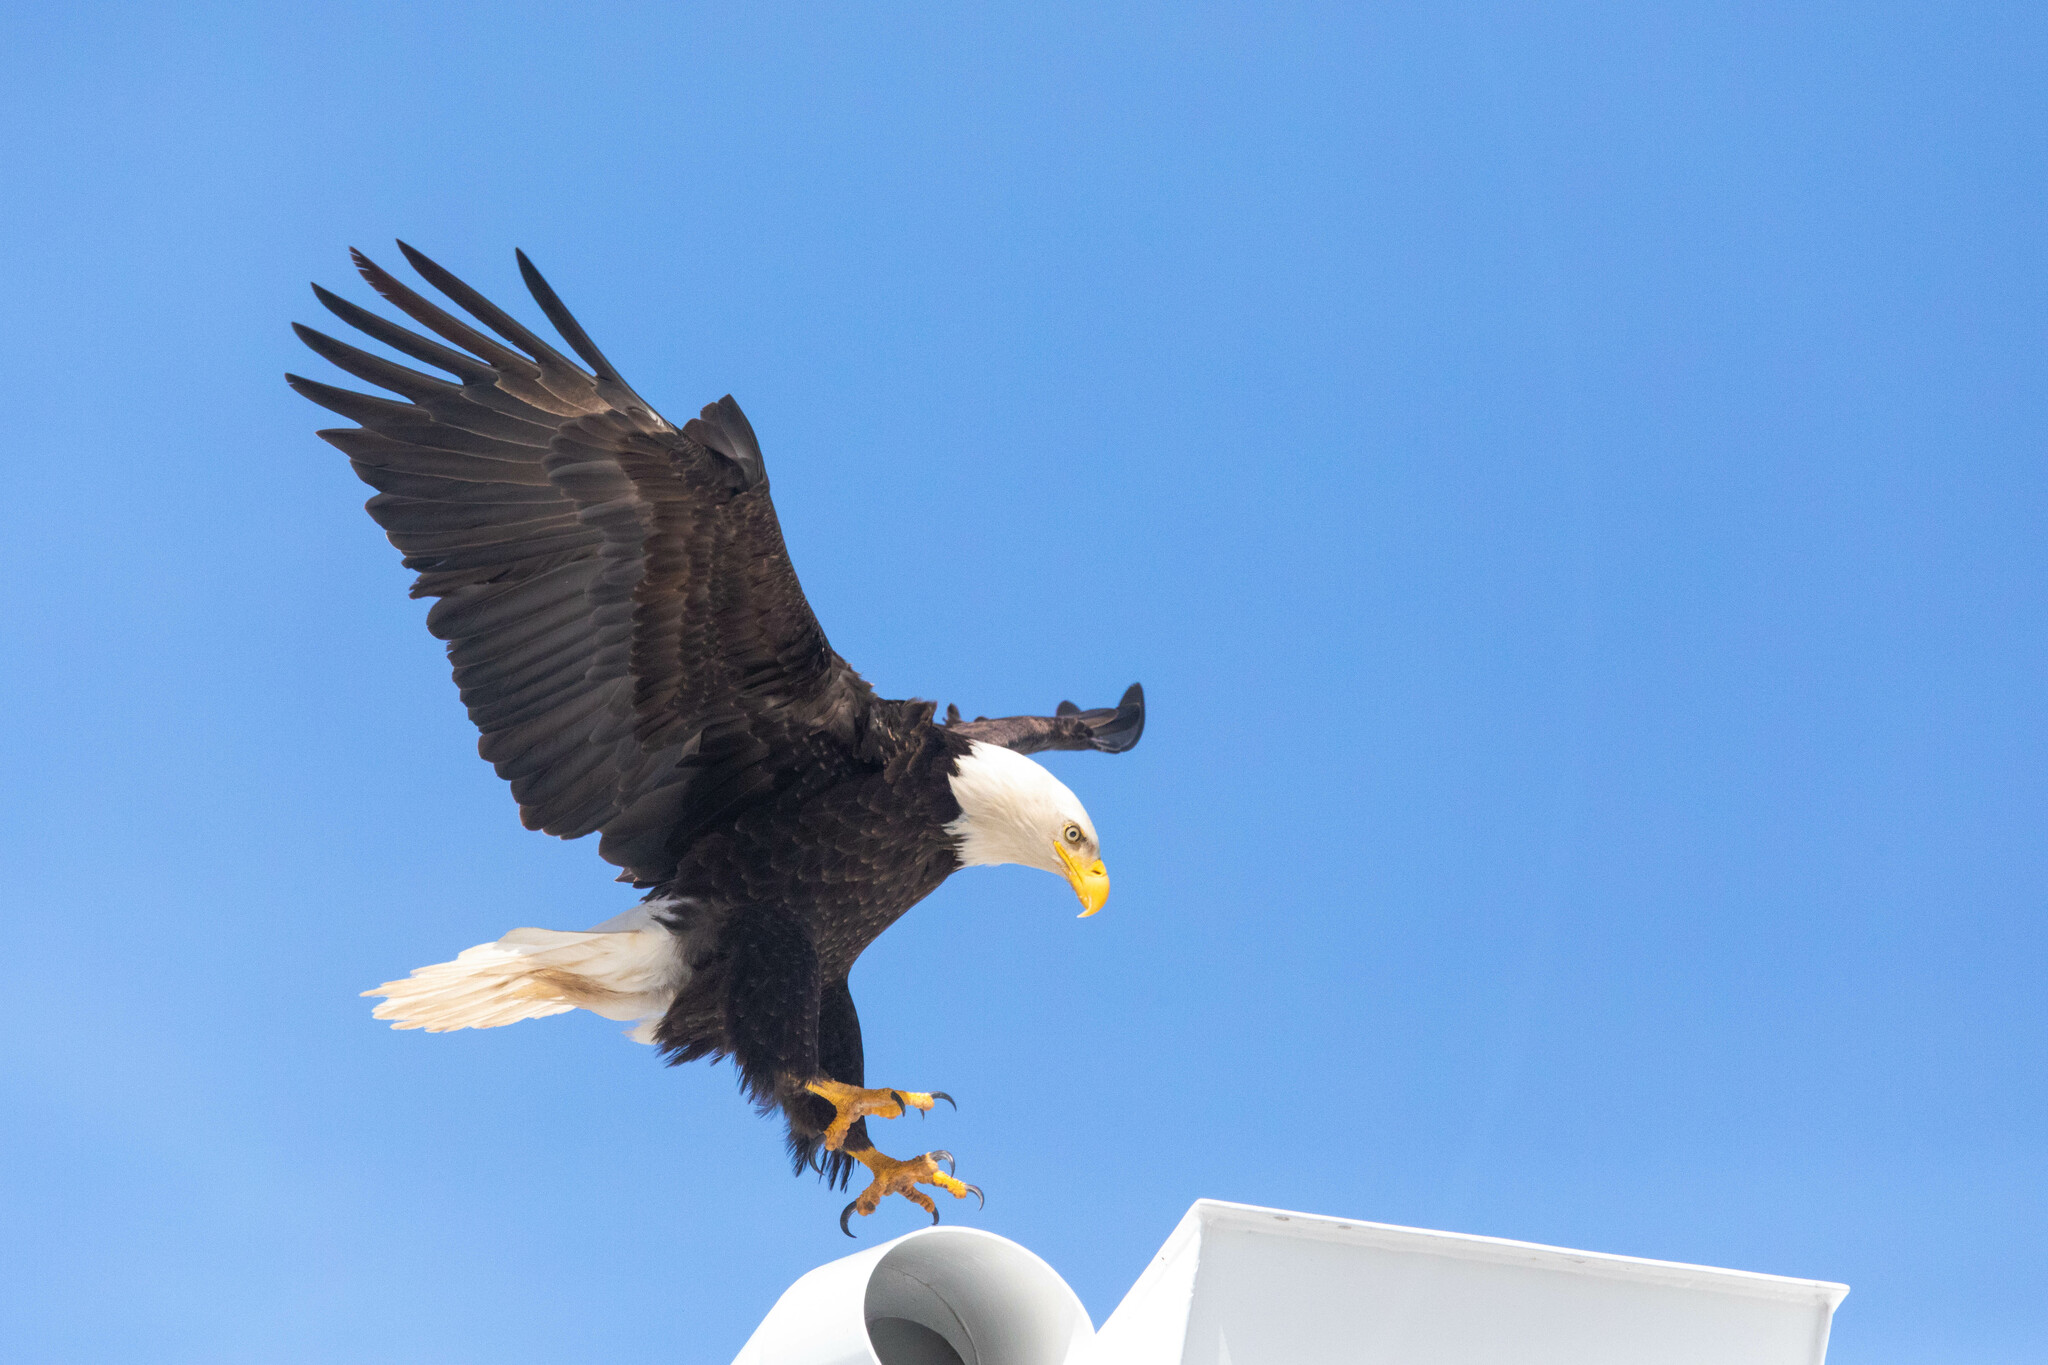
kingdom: Animalia
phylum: Chordata
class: Aves
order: Accipitriformes
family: Accipitridae
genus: Haliaeetus
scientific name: Haliaeetus leucocephalus
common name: Bald eagle
